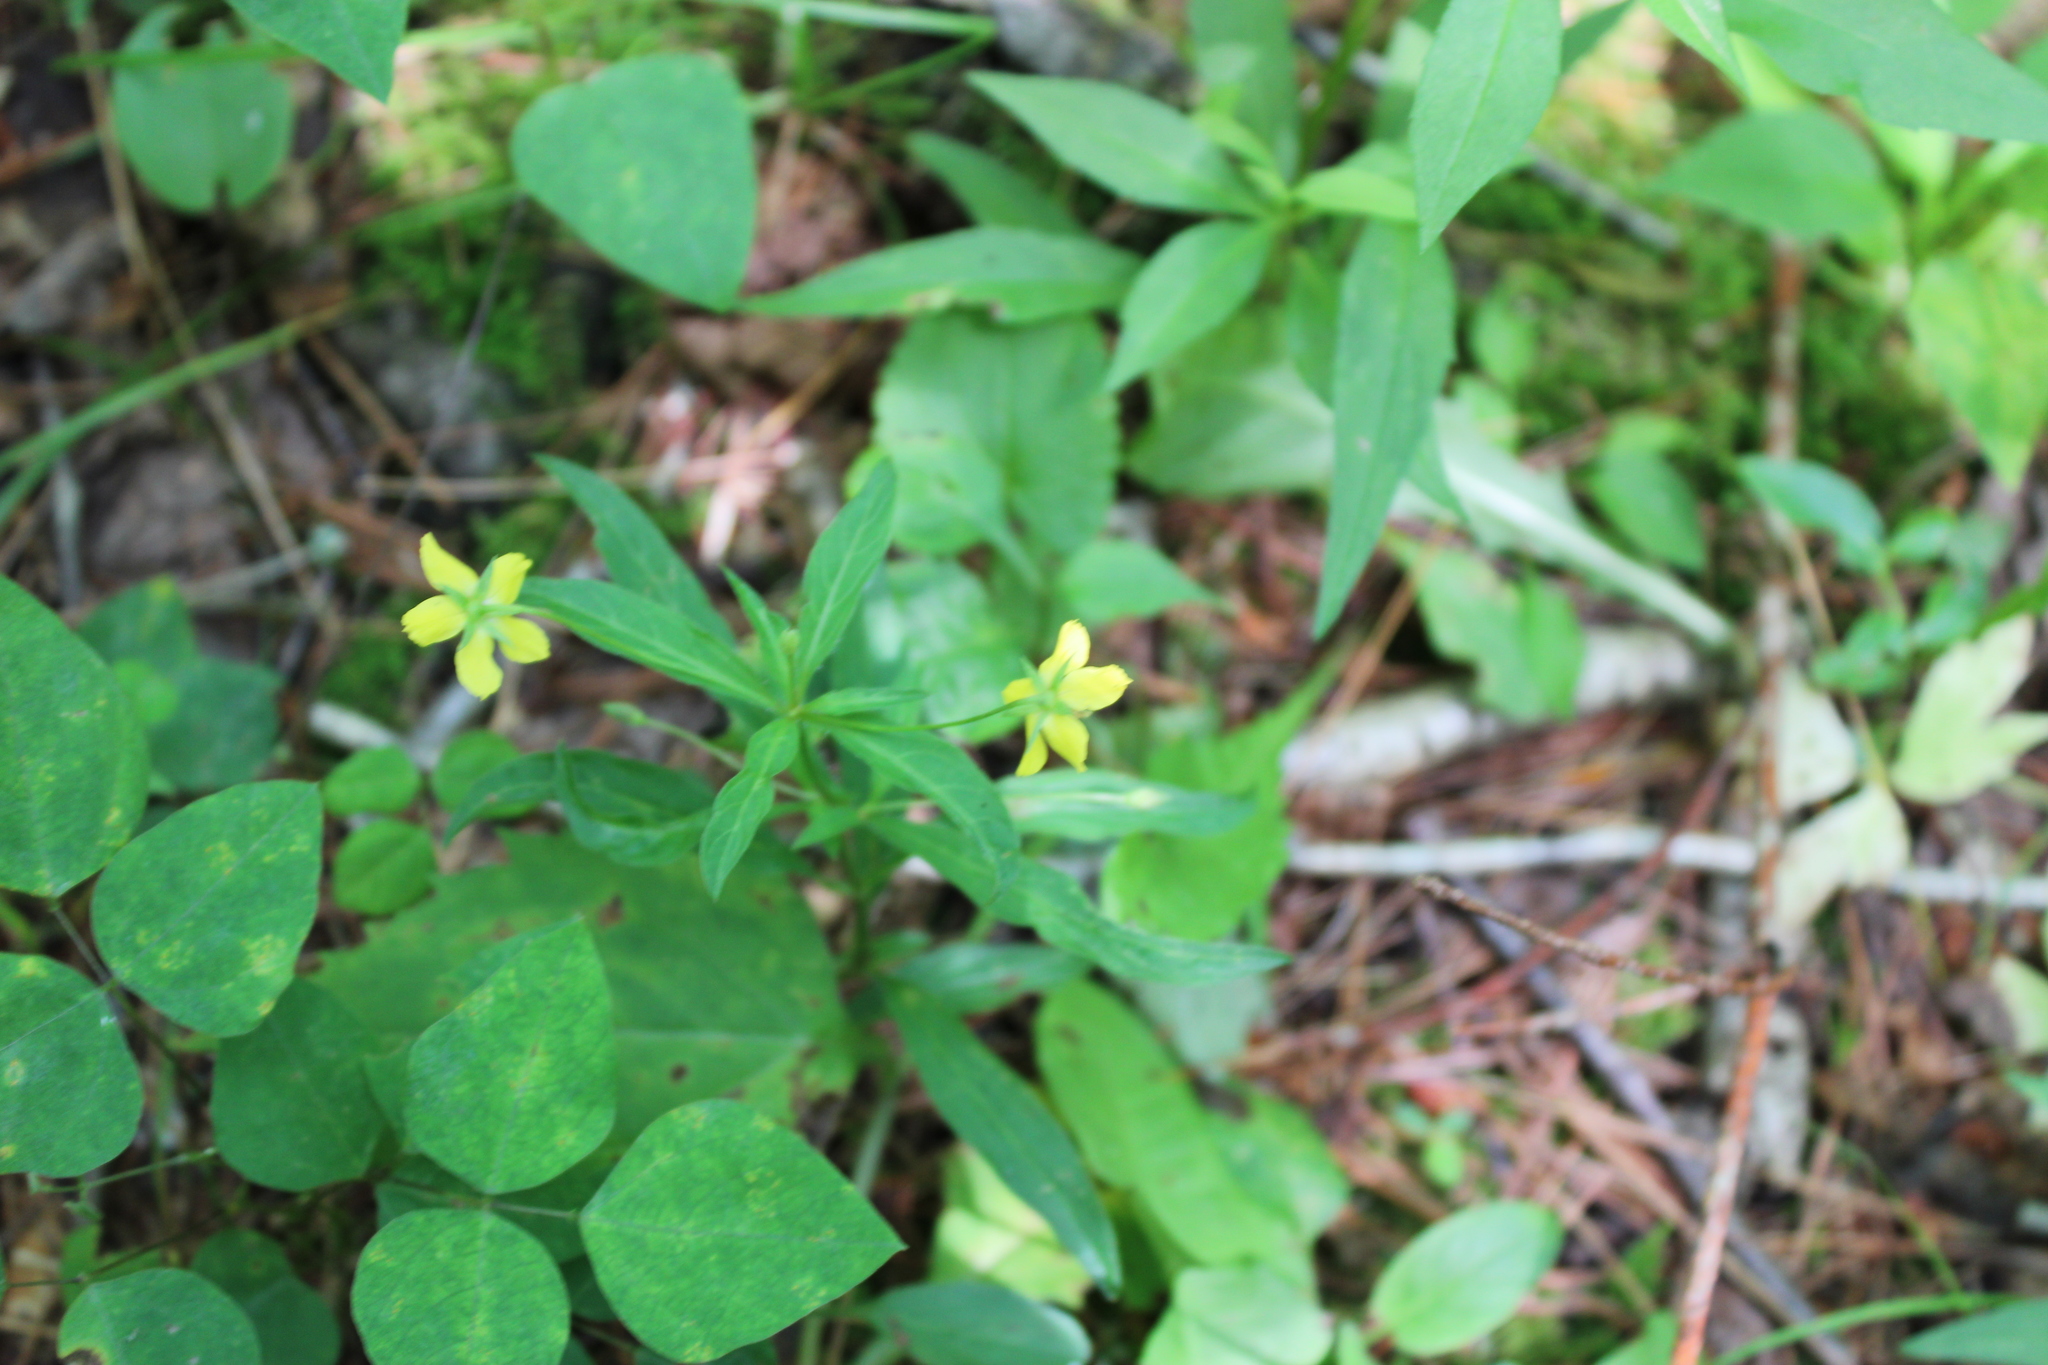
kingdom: Plantae
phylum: Tracheophyta
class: Magnoliopsida
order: Ericales
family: Primulaceae
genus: Lysimachia
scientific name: Lysimachia lanceolata
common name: Lance-leaved loosestrife
